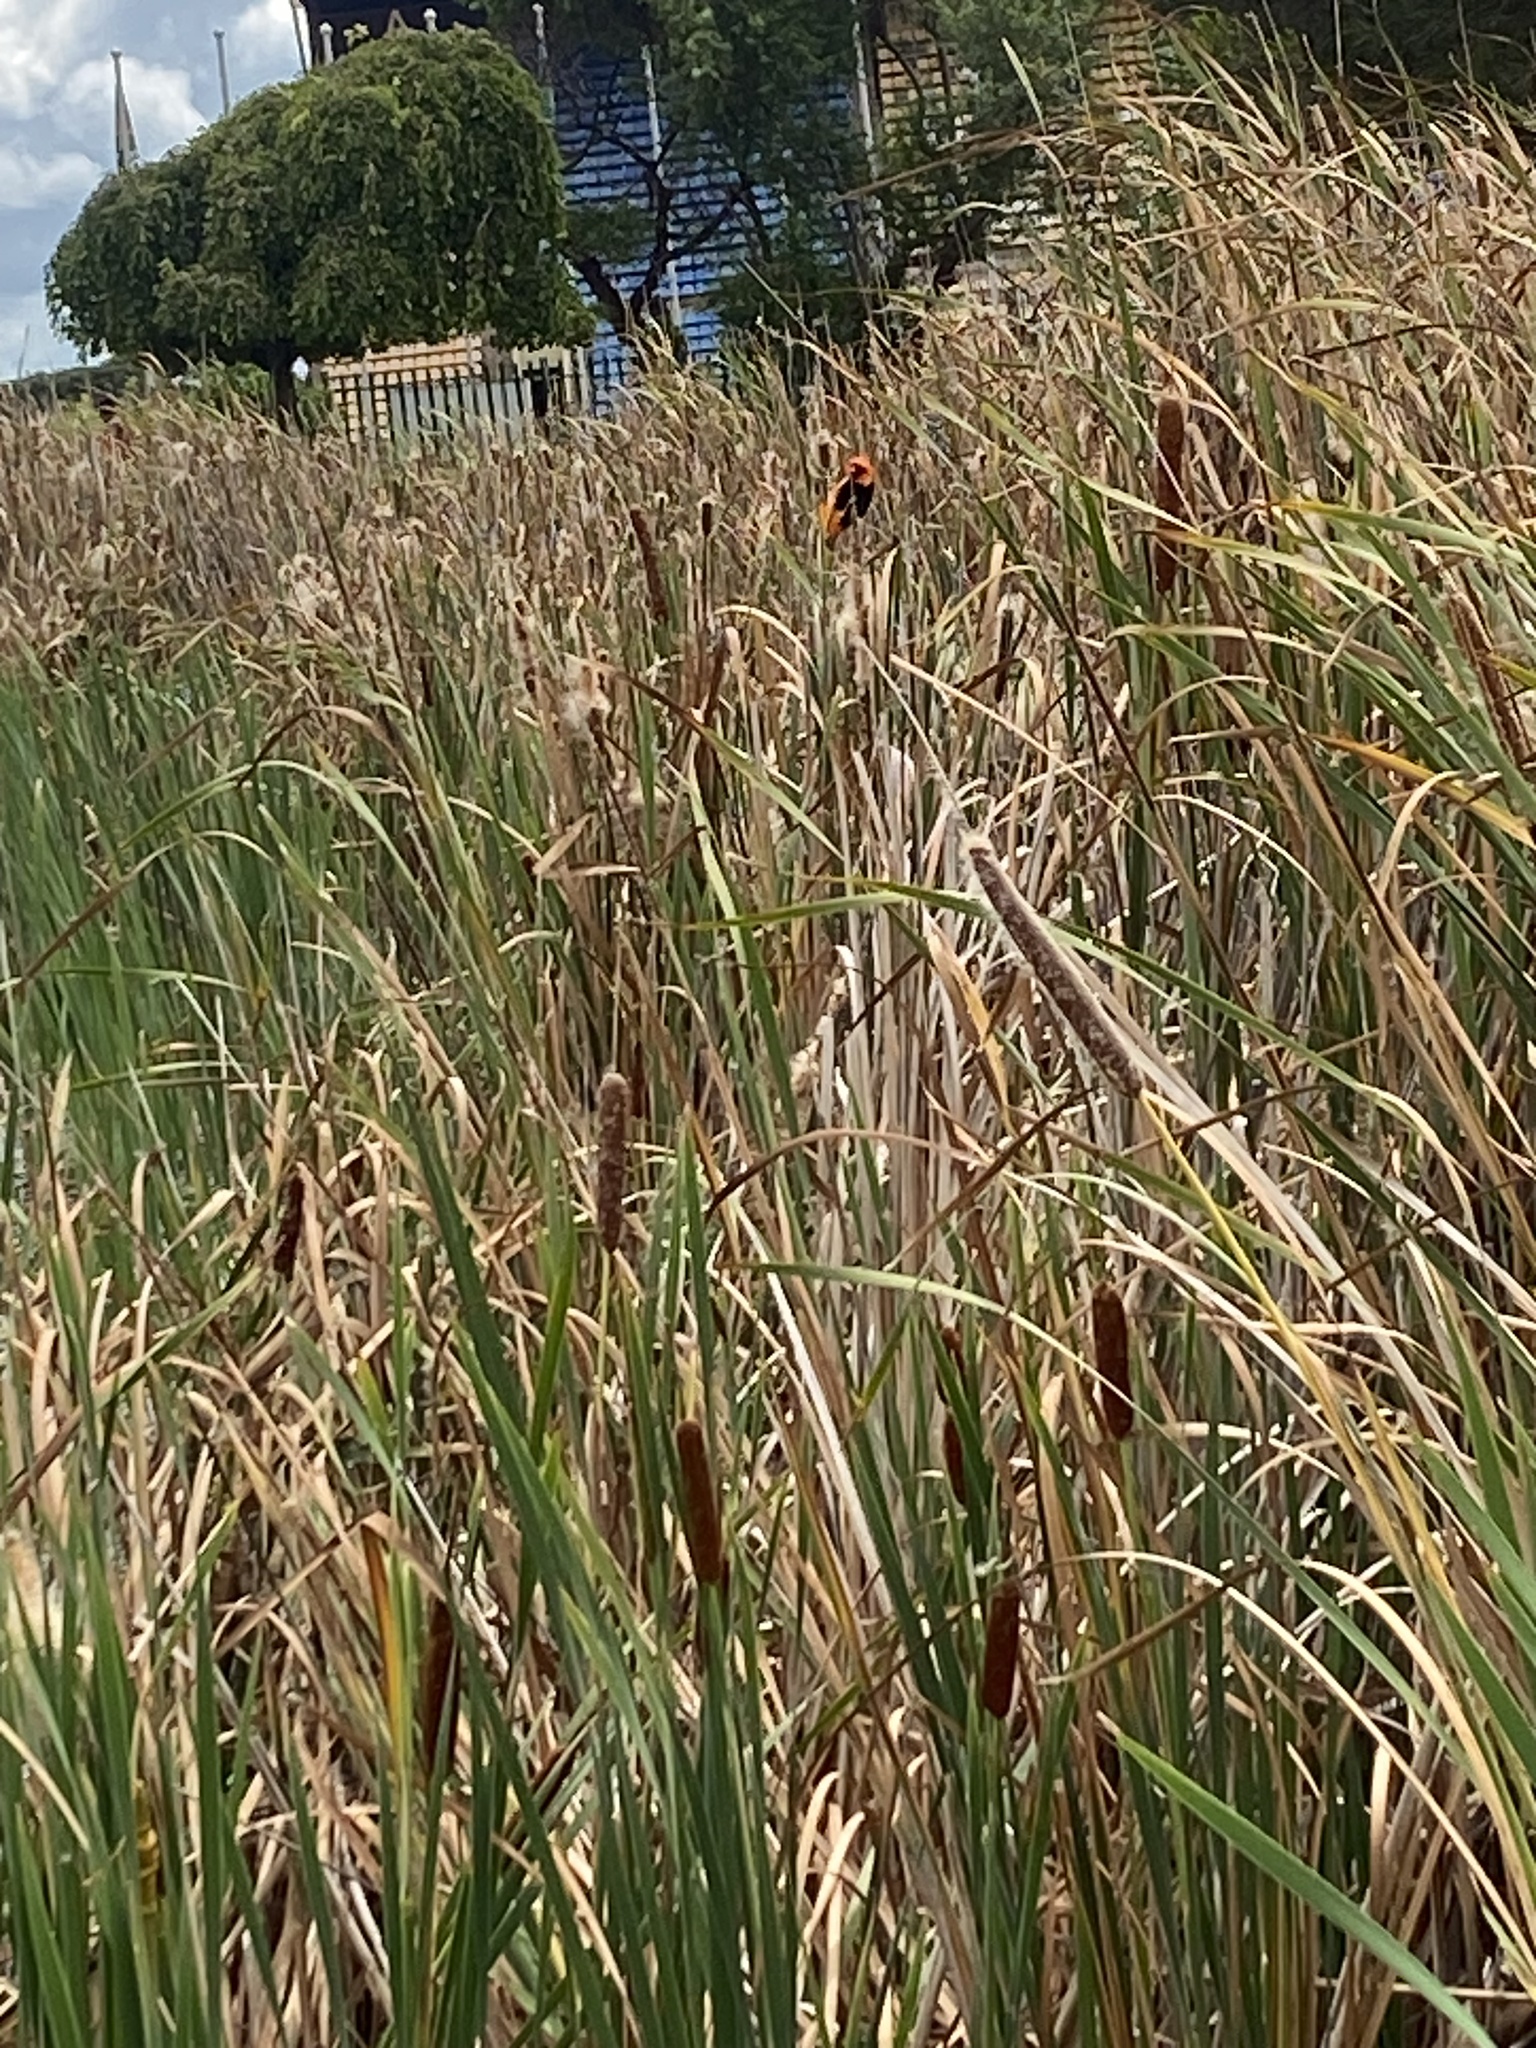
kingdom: Animalia
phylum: Chordata
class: Aves
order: Passeriformes
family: Ploceidae
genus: Euplectes
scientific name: Euplectes orix
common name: Southern red bishop
